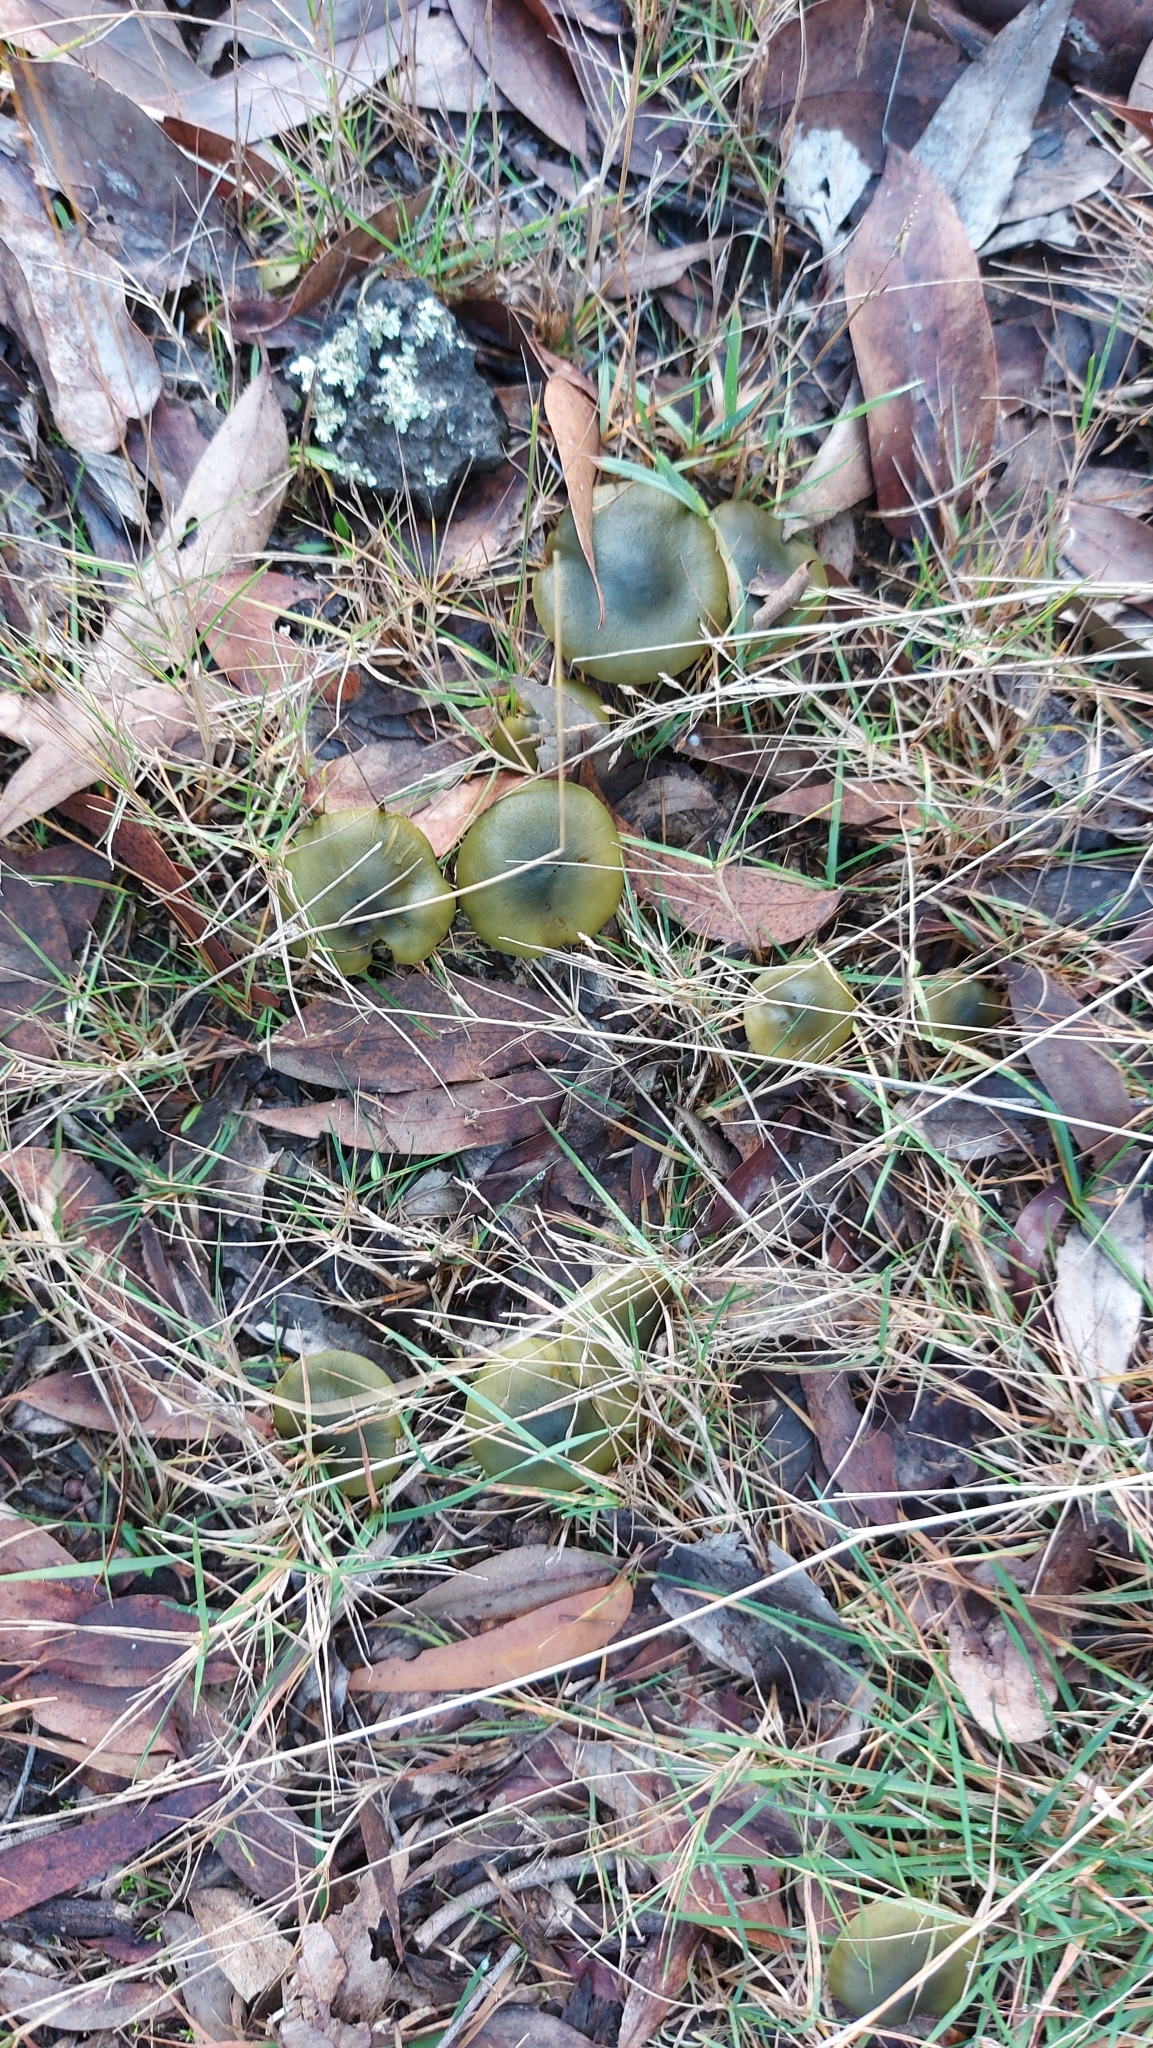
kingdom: Fungi
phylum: Basidiomycota
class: Agaricomycetes
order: Agaricales
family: Cortinariaceae
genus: Cortinarius
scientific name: Cortinarius austrovenetus
